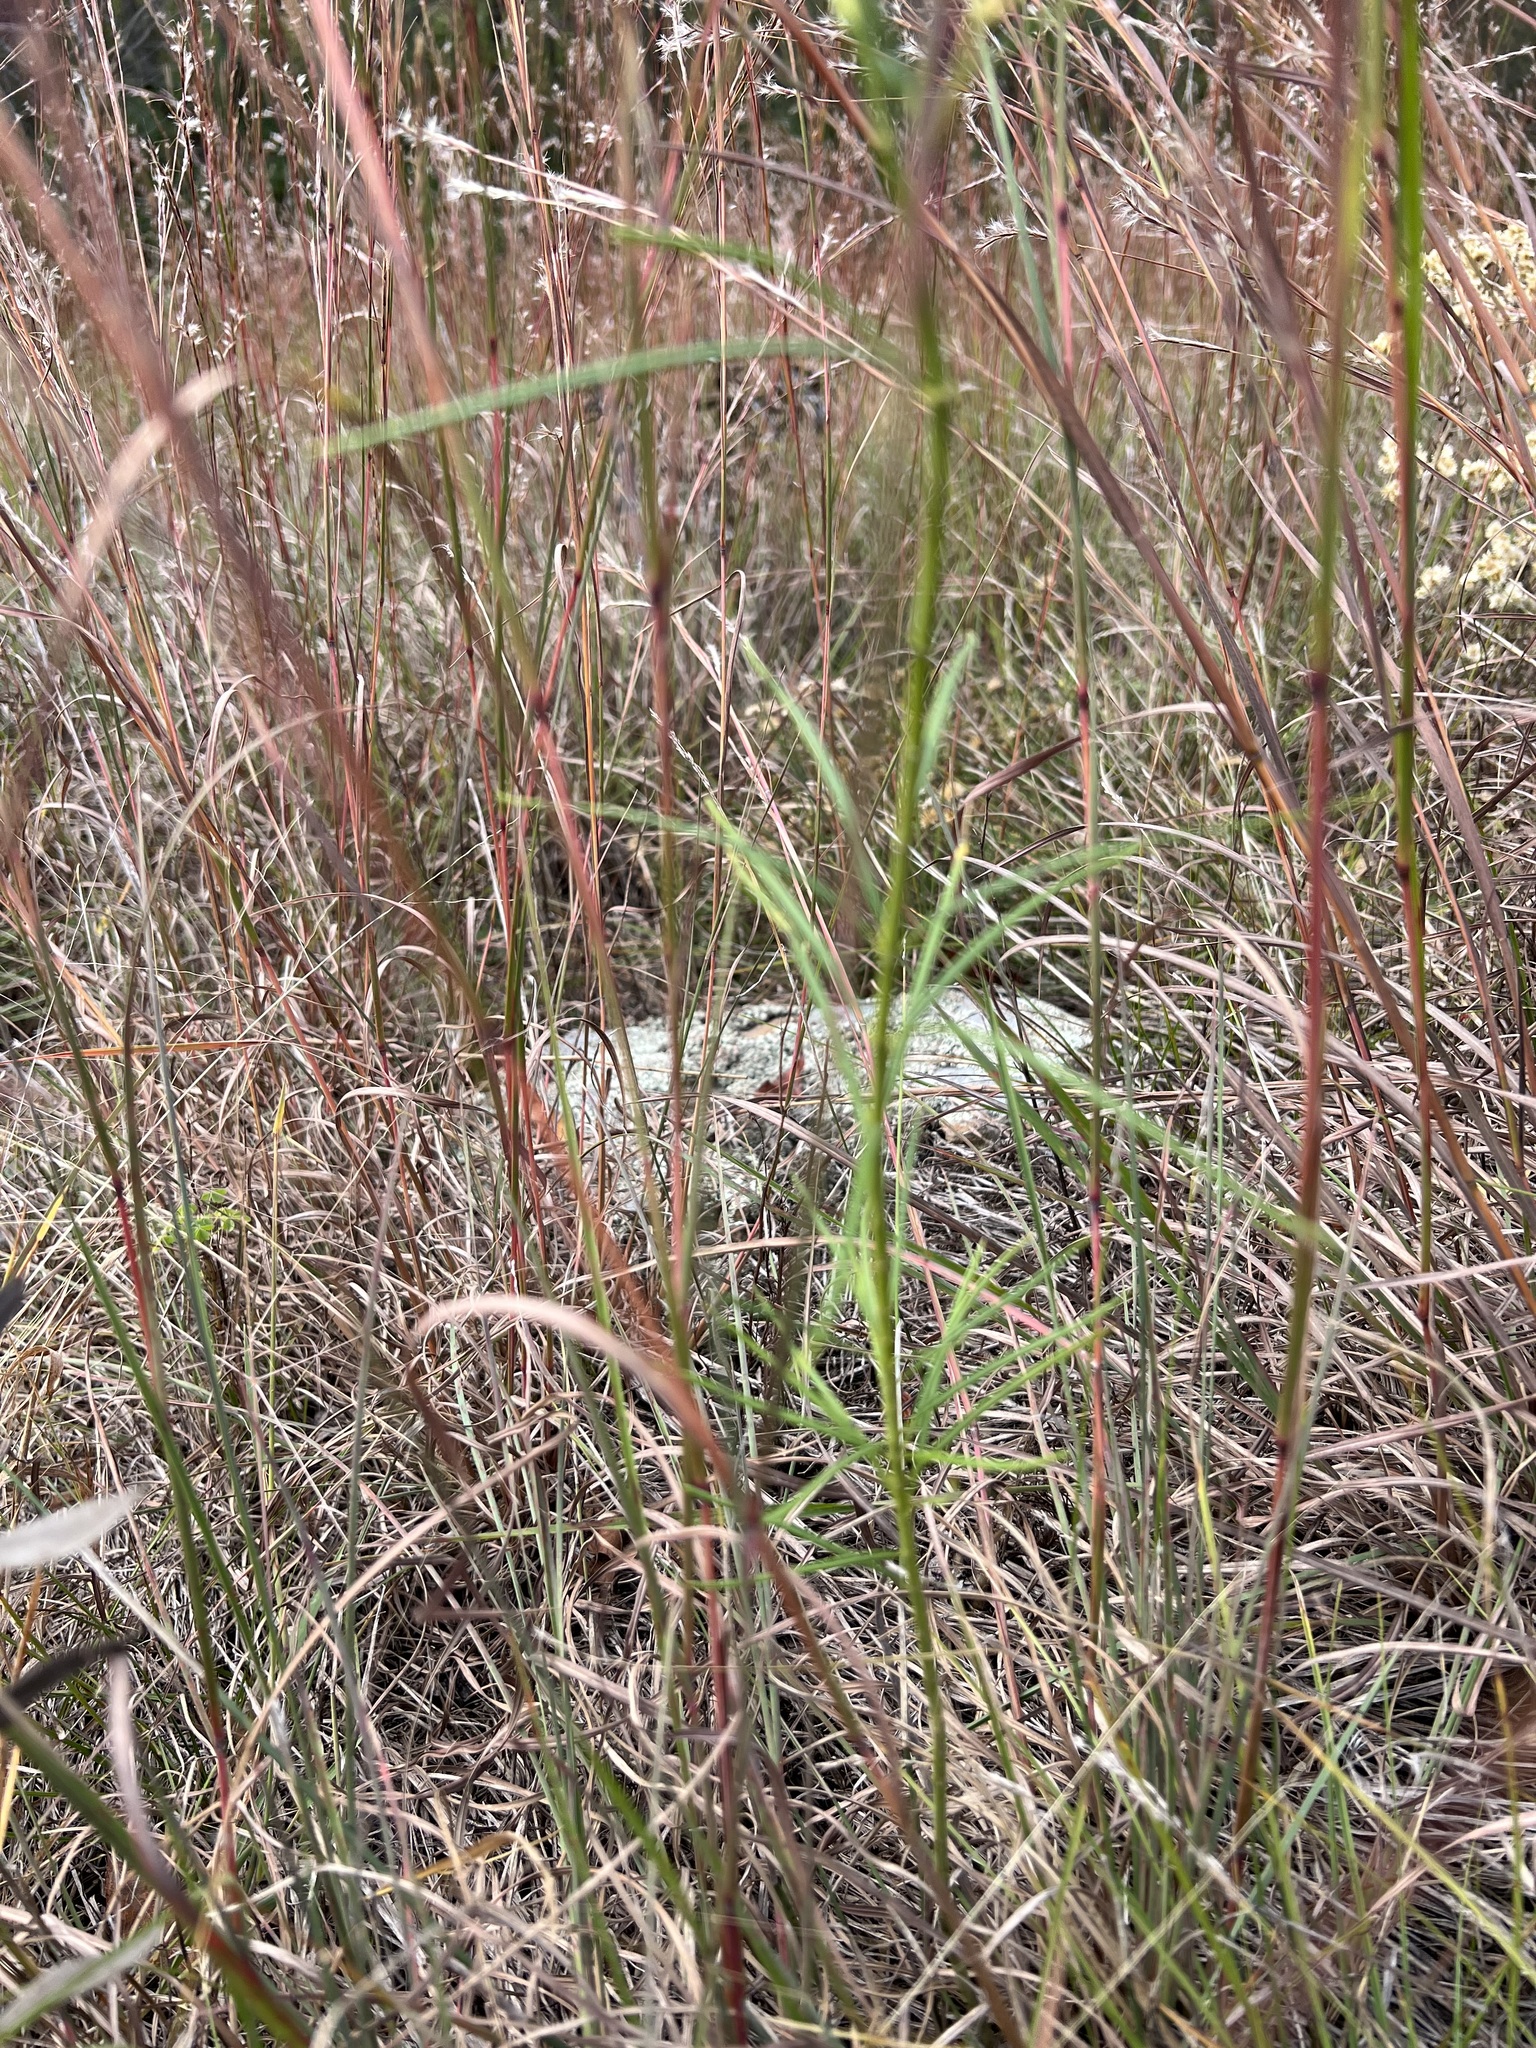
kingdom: Plantae
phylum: Tracheophyta
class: Magnoliopsida
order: Gentianales
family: Apocynaceae
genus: Asclepias
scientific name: Asclepias verticillata
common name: Eastern whorled milkweed
